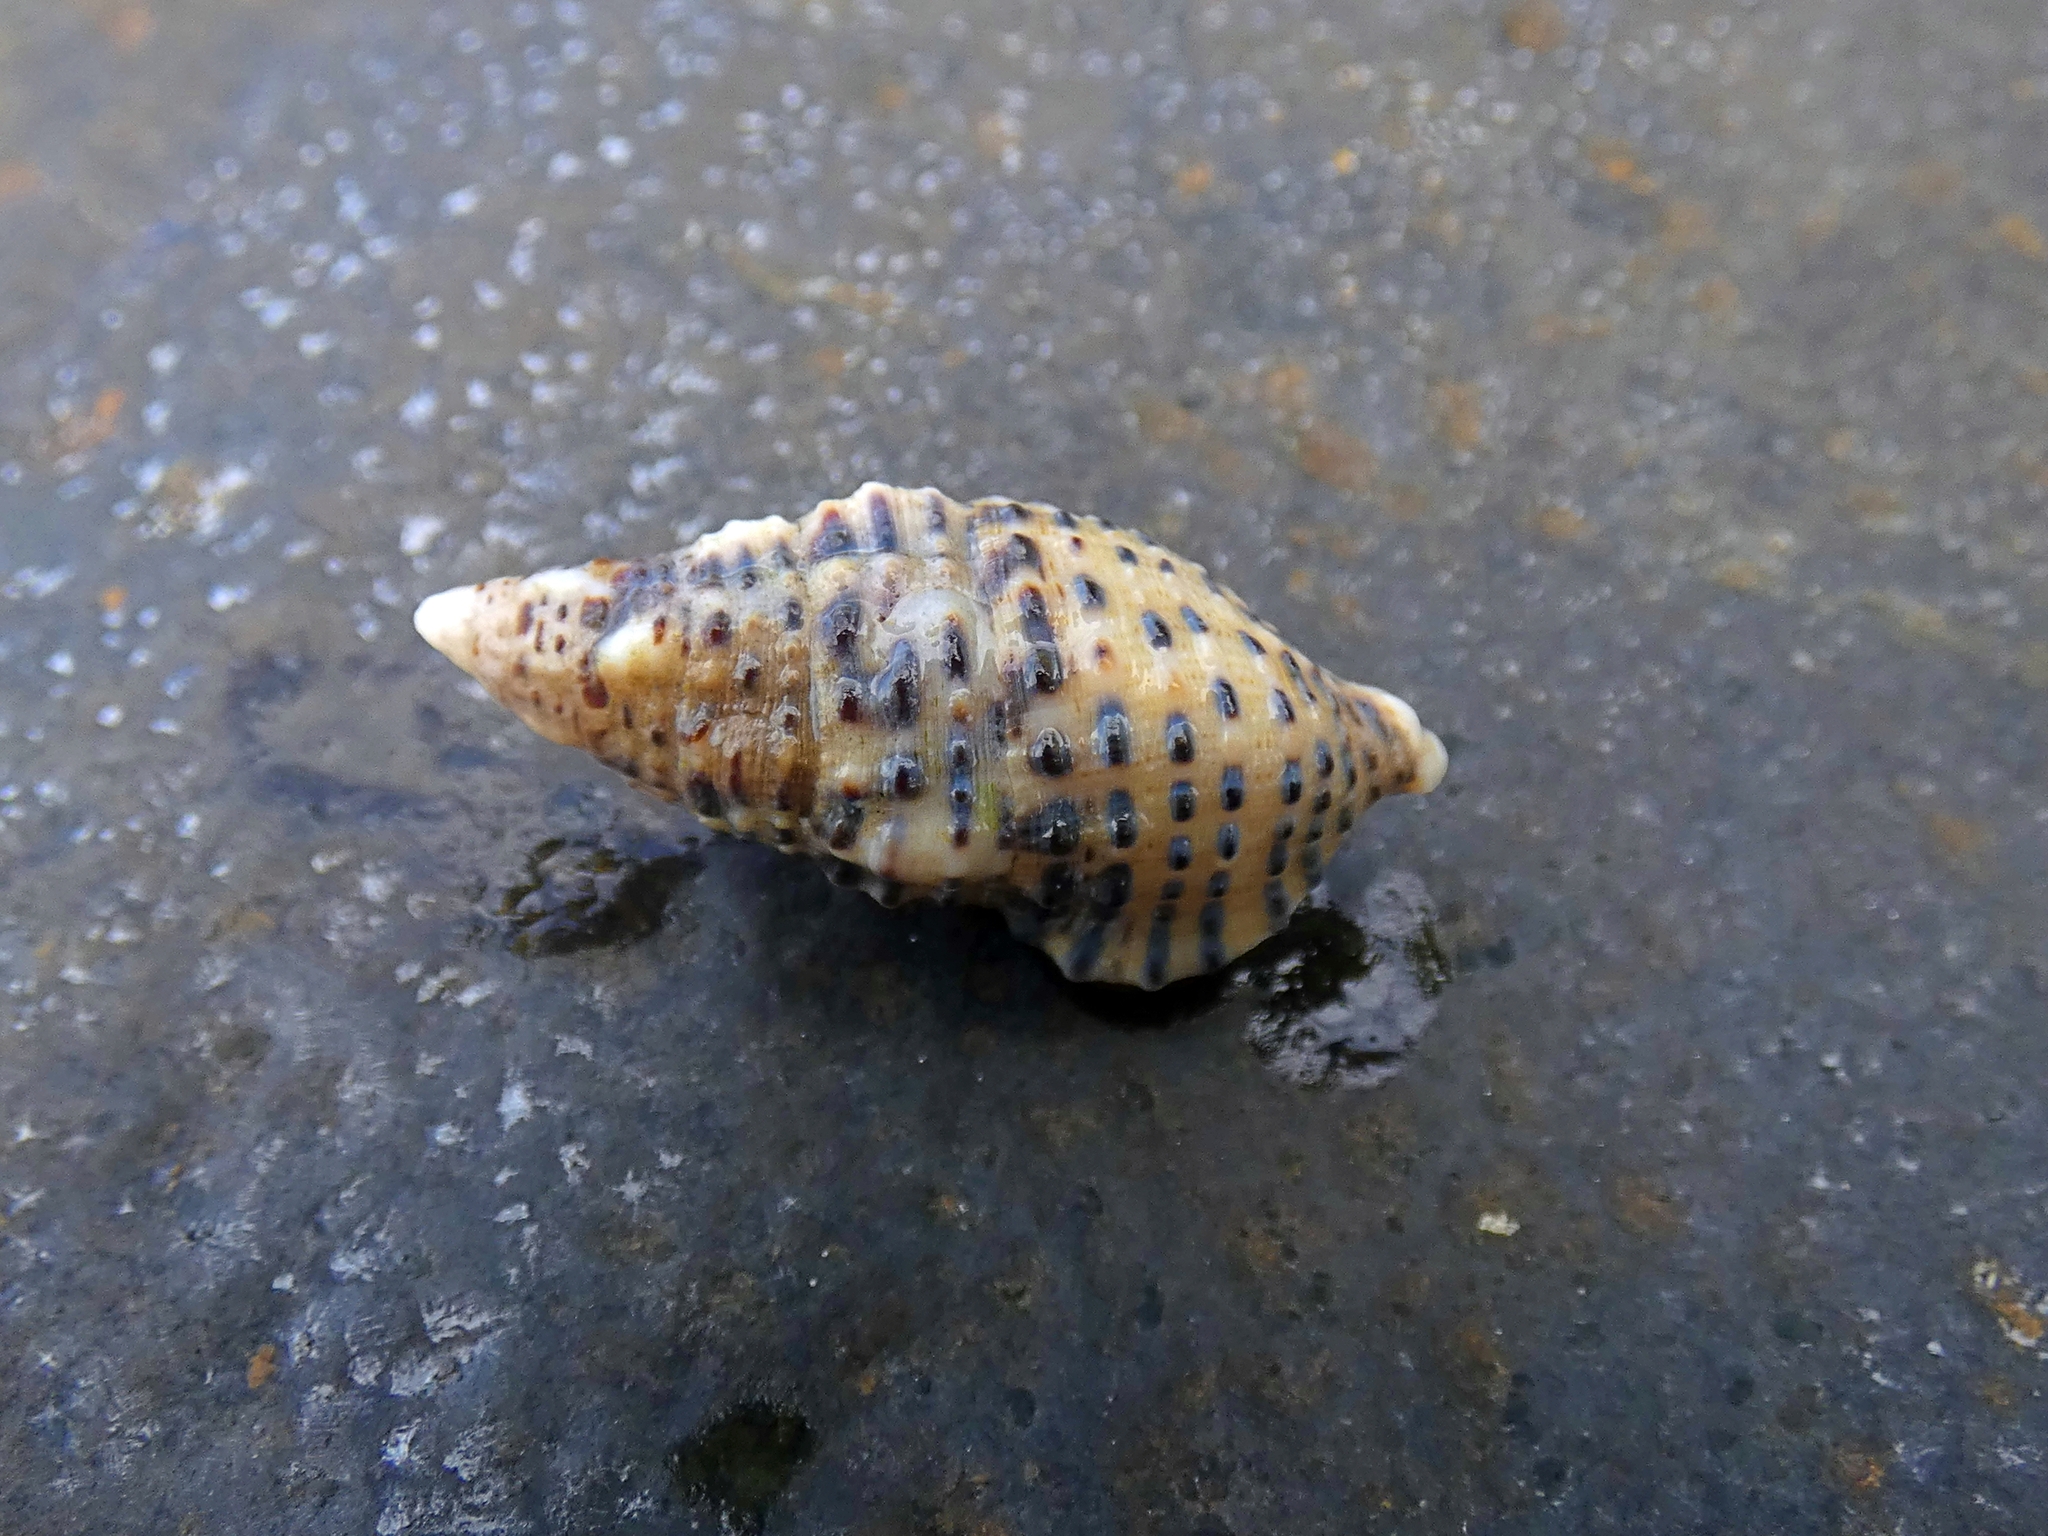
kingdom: Animalia
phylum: Mollusca
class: Gastropoda
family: Cerithiidae
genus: Clypeomorus
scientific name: Clypeomorus petrosa
